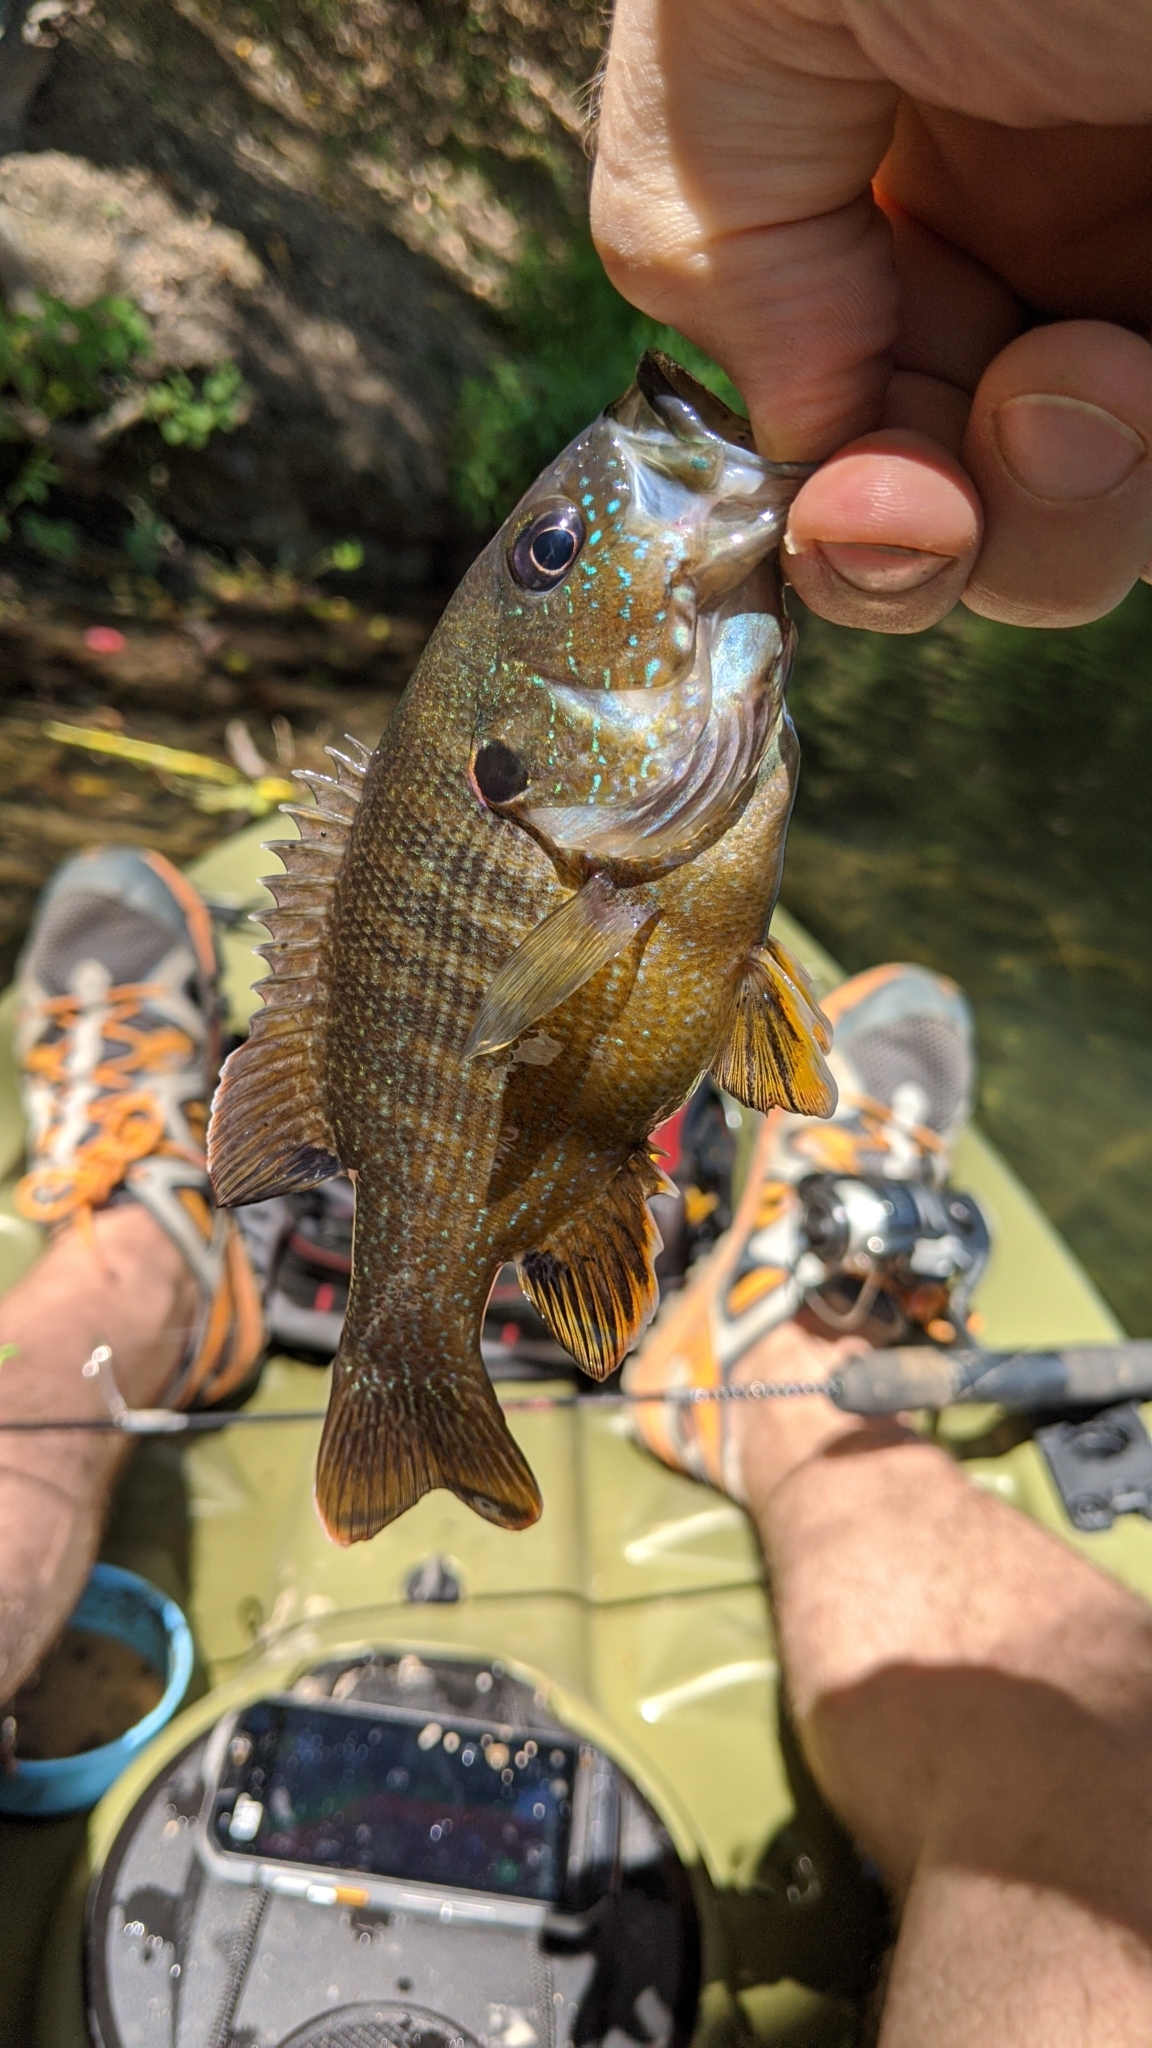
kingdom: Animalia
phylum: Chordata
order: Perciformes
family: Centrarchidae
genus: Lepomis
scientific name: Lepomis cyanellus
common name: Green sunfish
